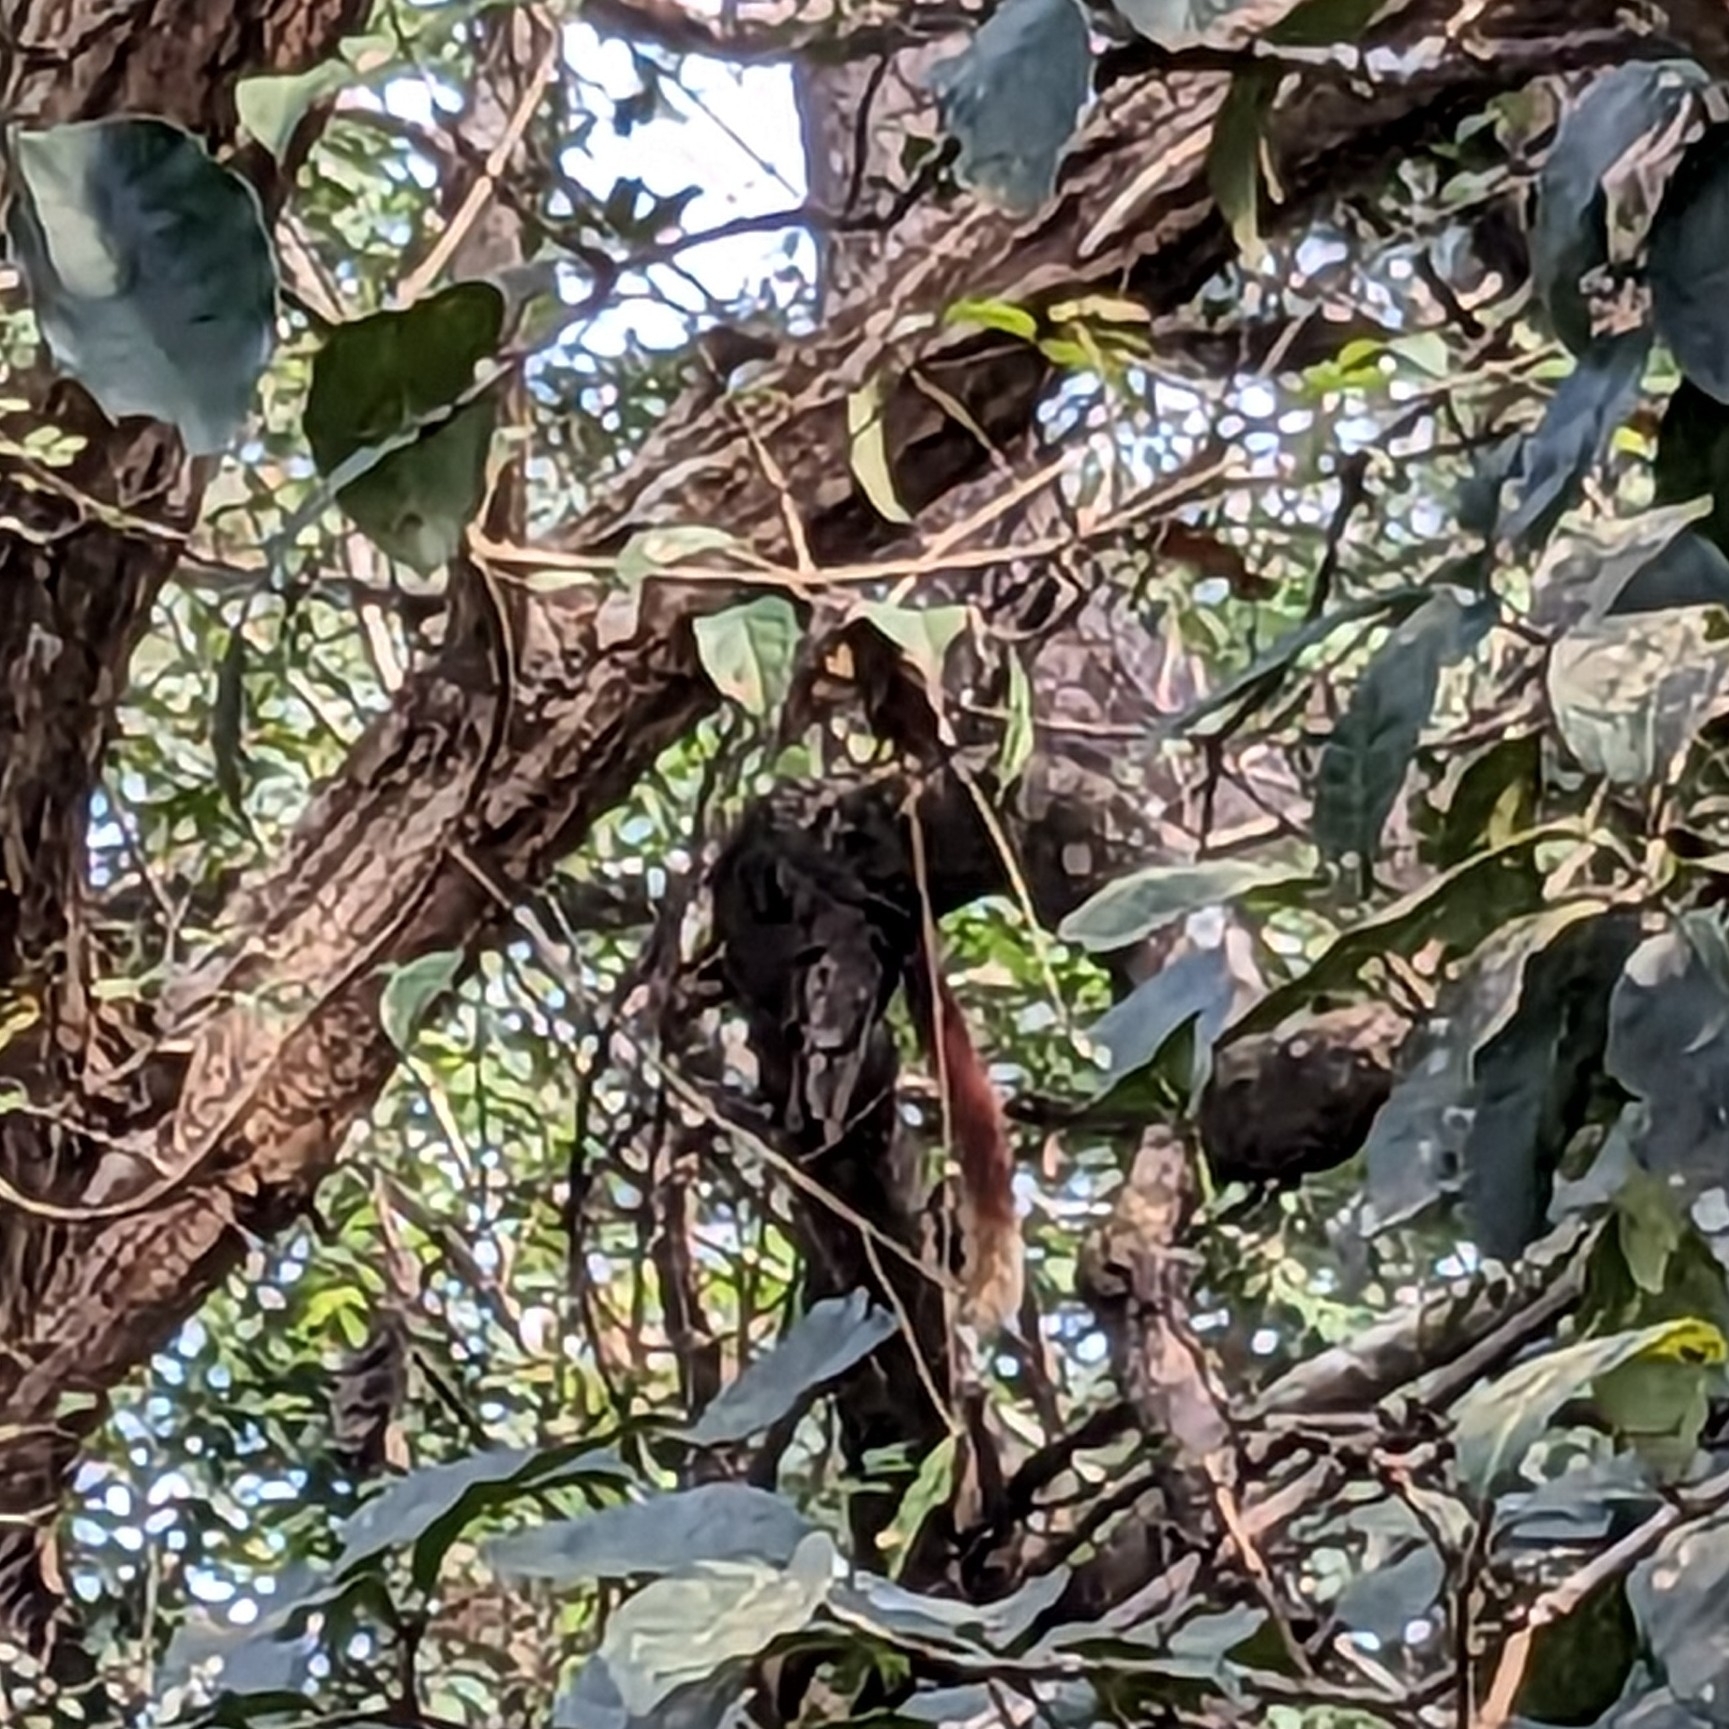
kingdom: Animalia
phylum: Chordata
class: Mammalia
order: Rodentia
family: Sciuridae
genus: Ratufa
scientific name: Ratufa indica
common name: Indian giant squirrel
